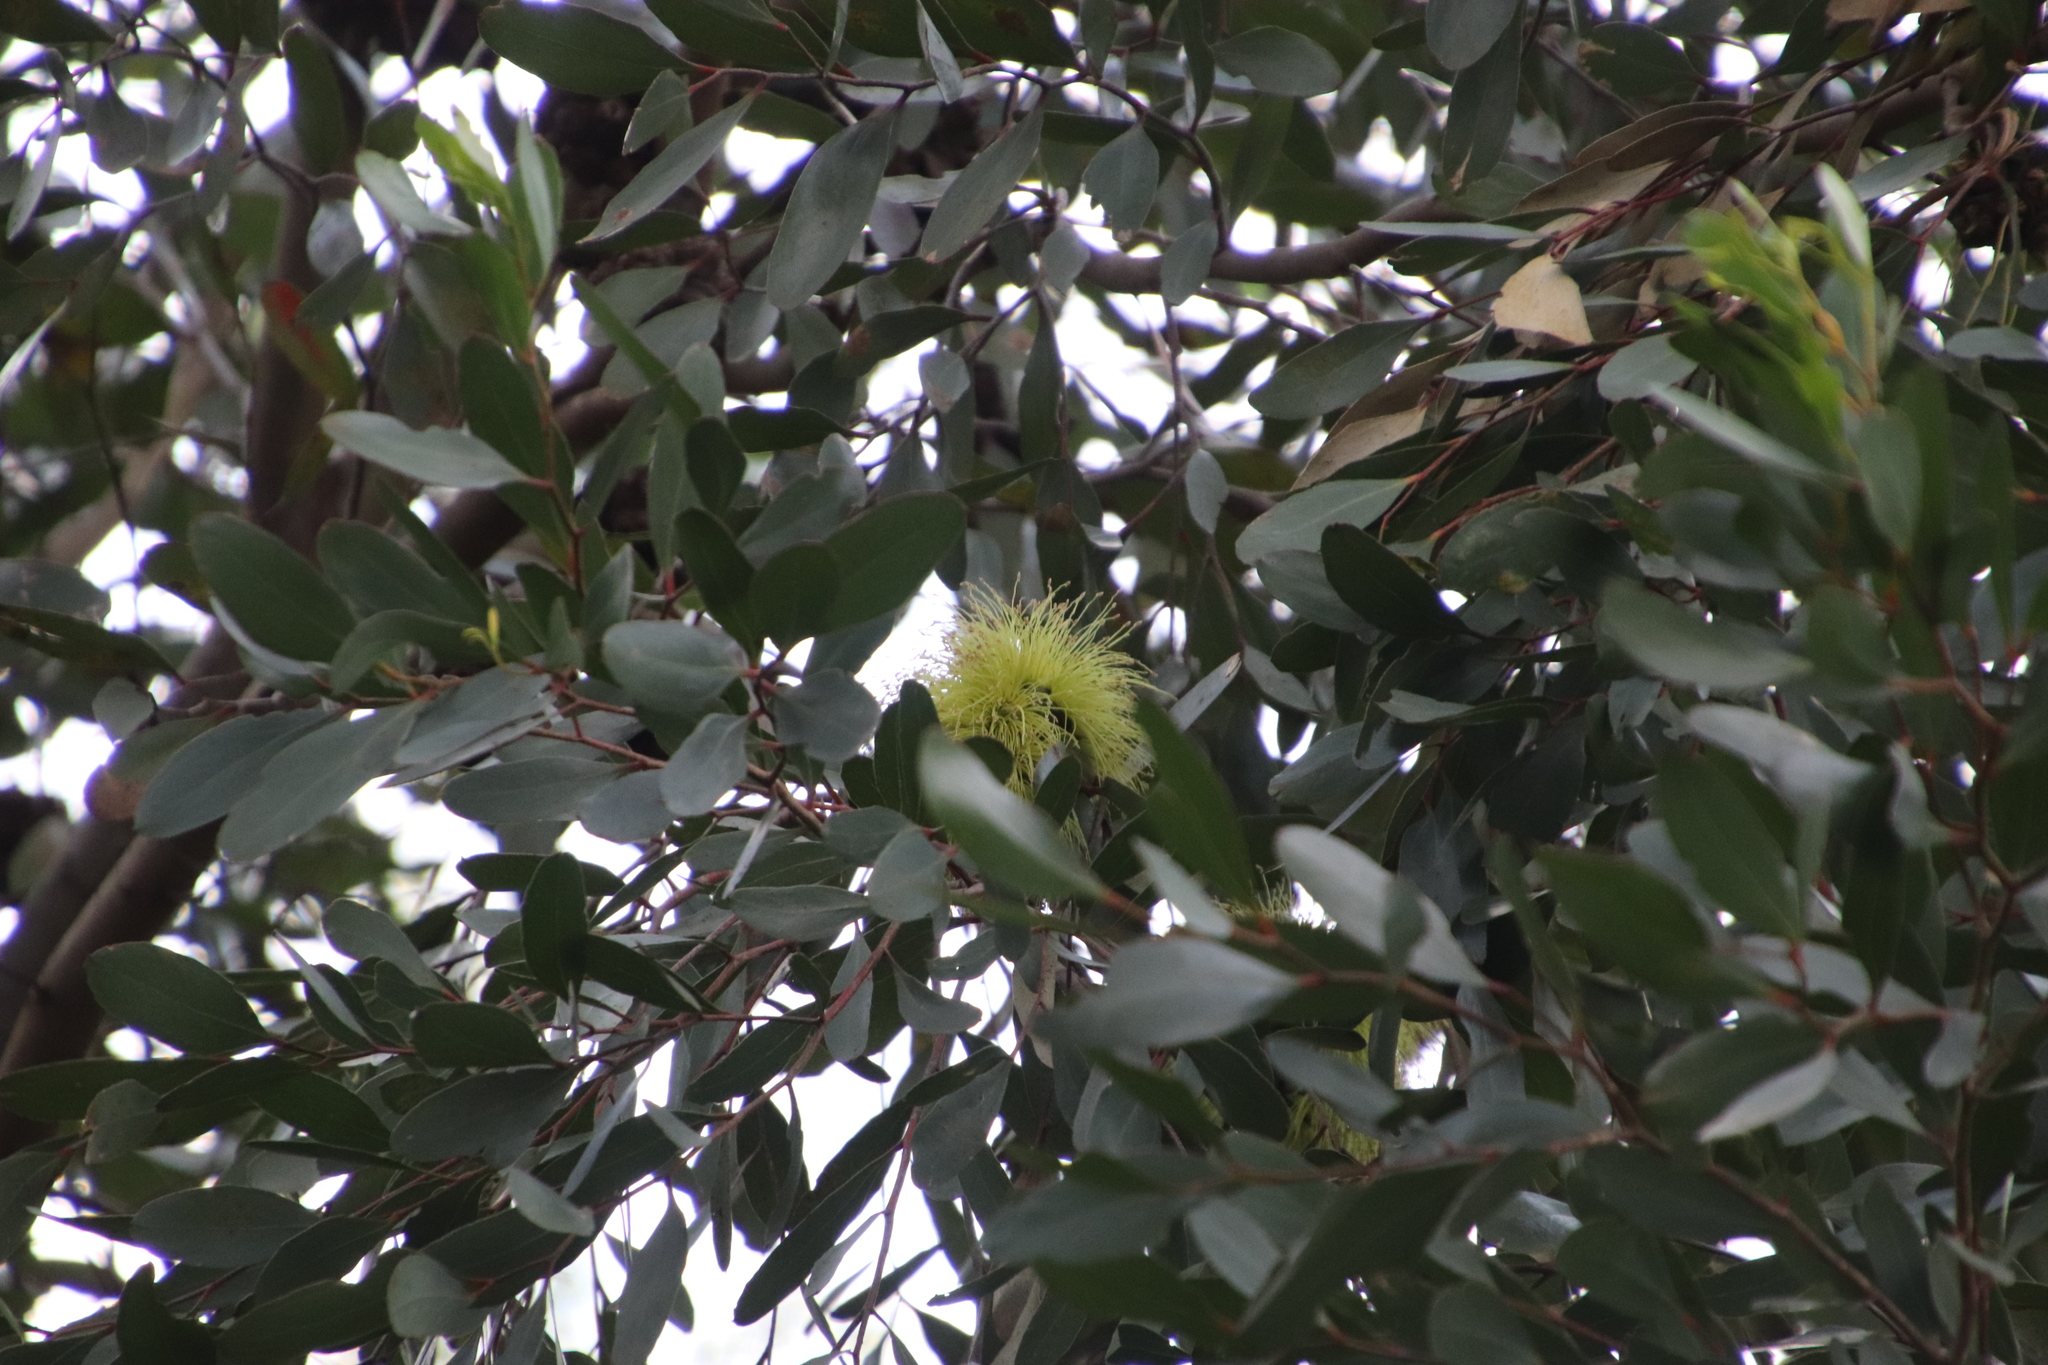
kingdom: Plantae
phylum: Tracheophyta
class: Magnoliopsida
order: Myrtales
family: Myrtaceae
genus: Eucalyptus
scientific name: Eucalyptus conferruminata
